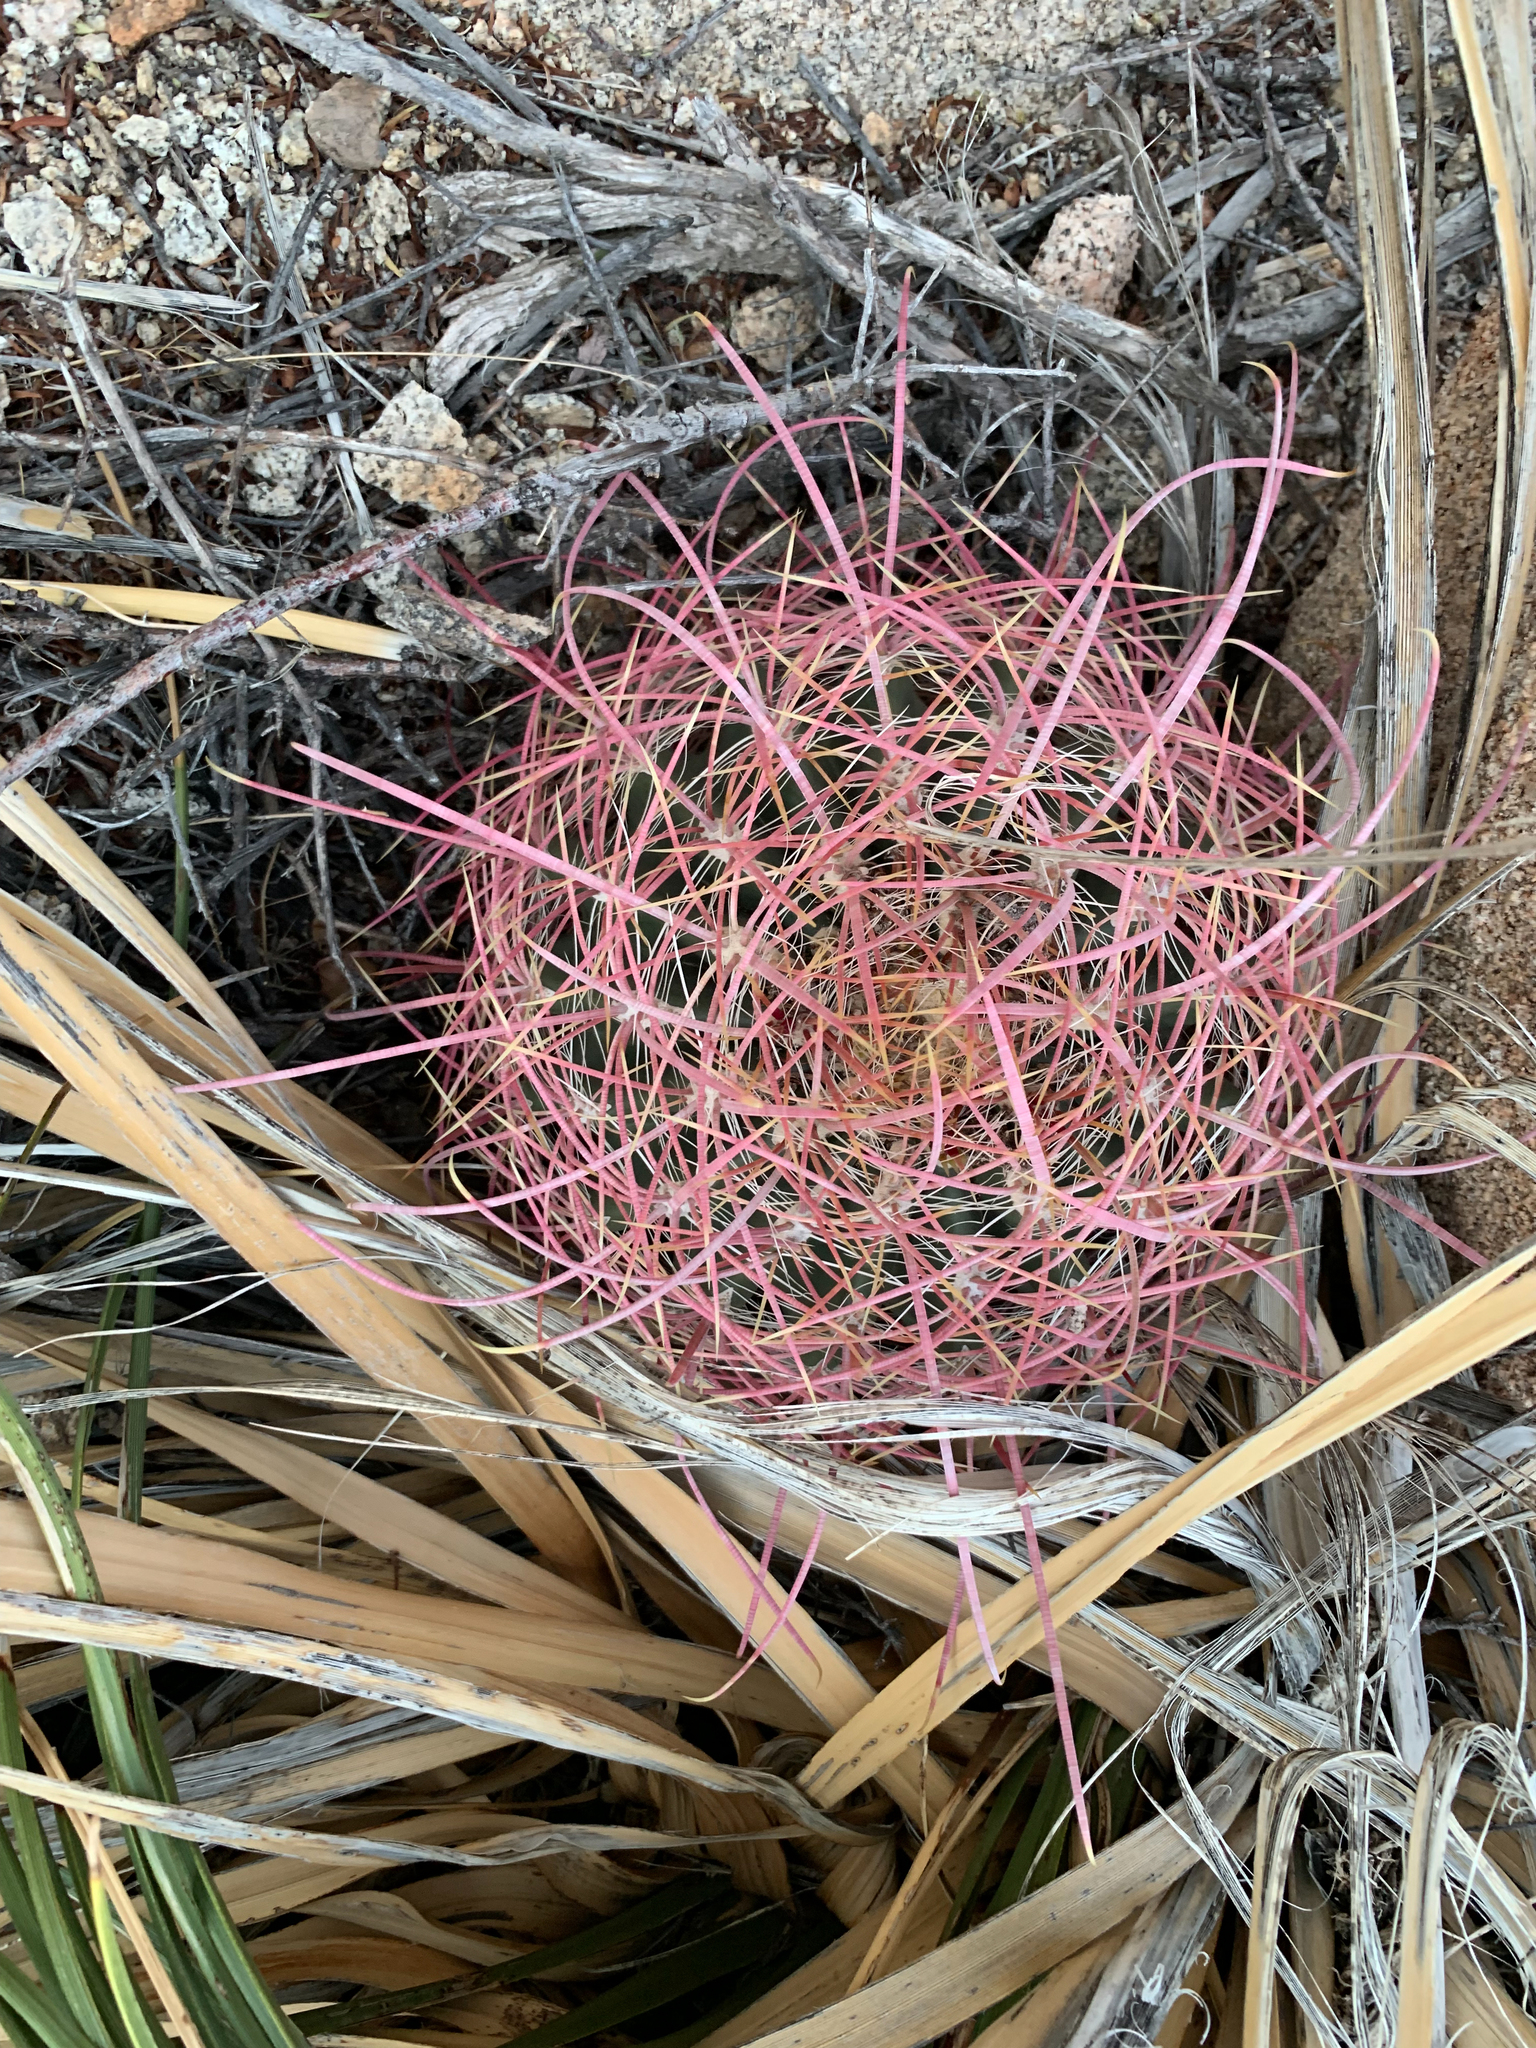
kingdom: Plantae
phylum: Tracheophyta
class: Magnoliopsida
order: Caryophyllales
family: Cactaceae
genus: Ferocactus
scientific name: Ferocactus cylindraceus
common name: California barrel cactus
